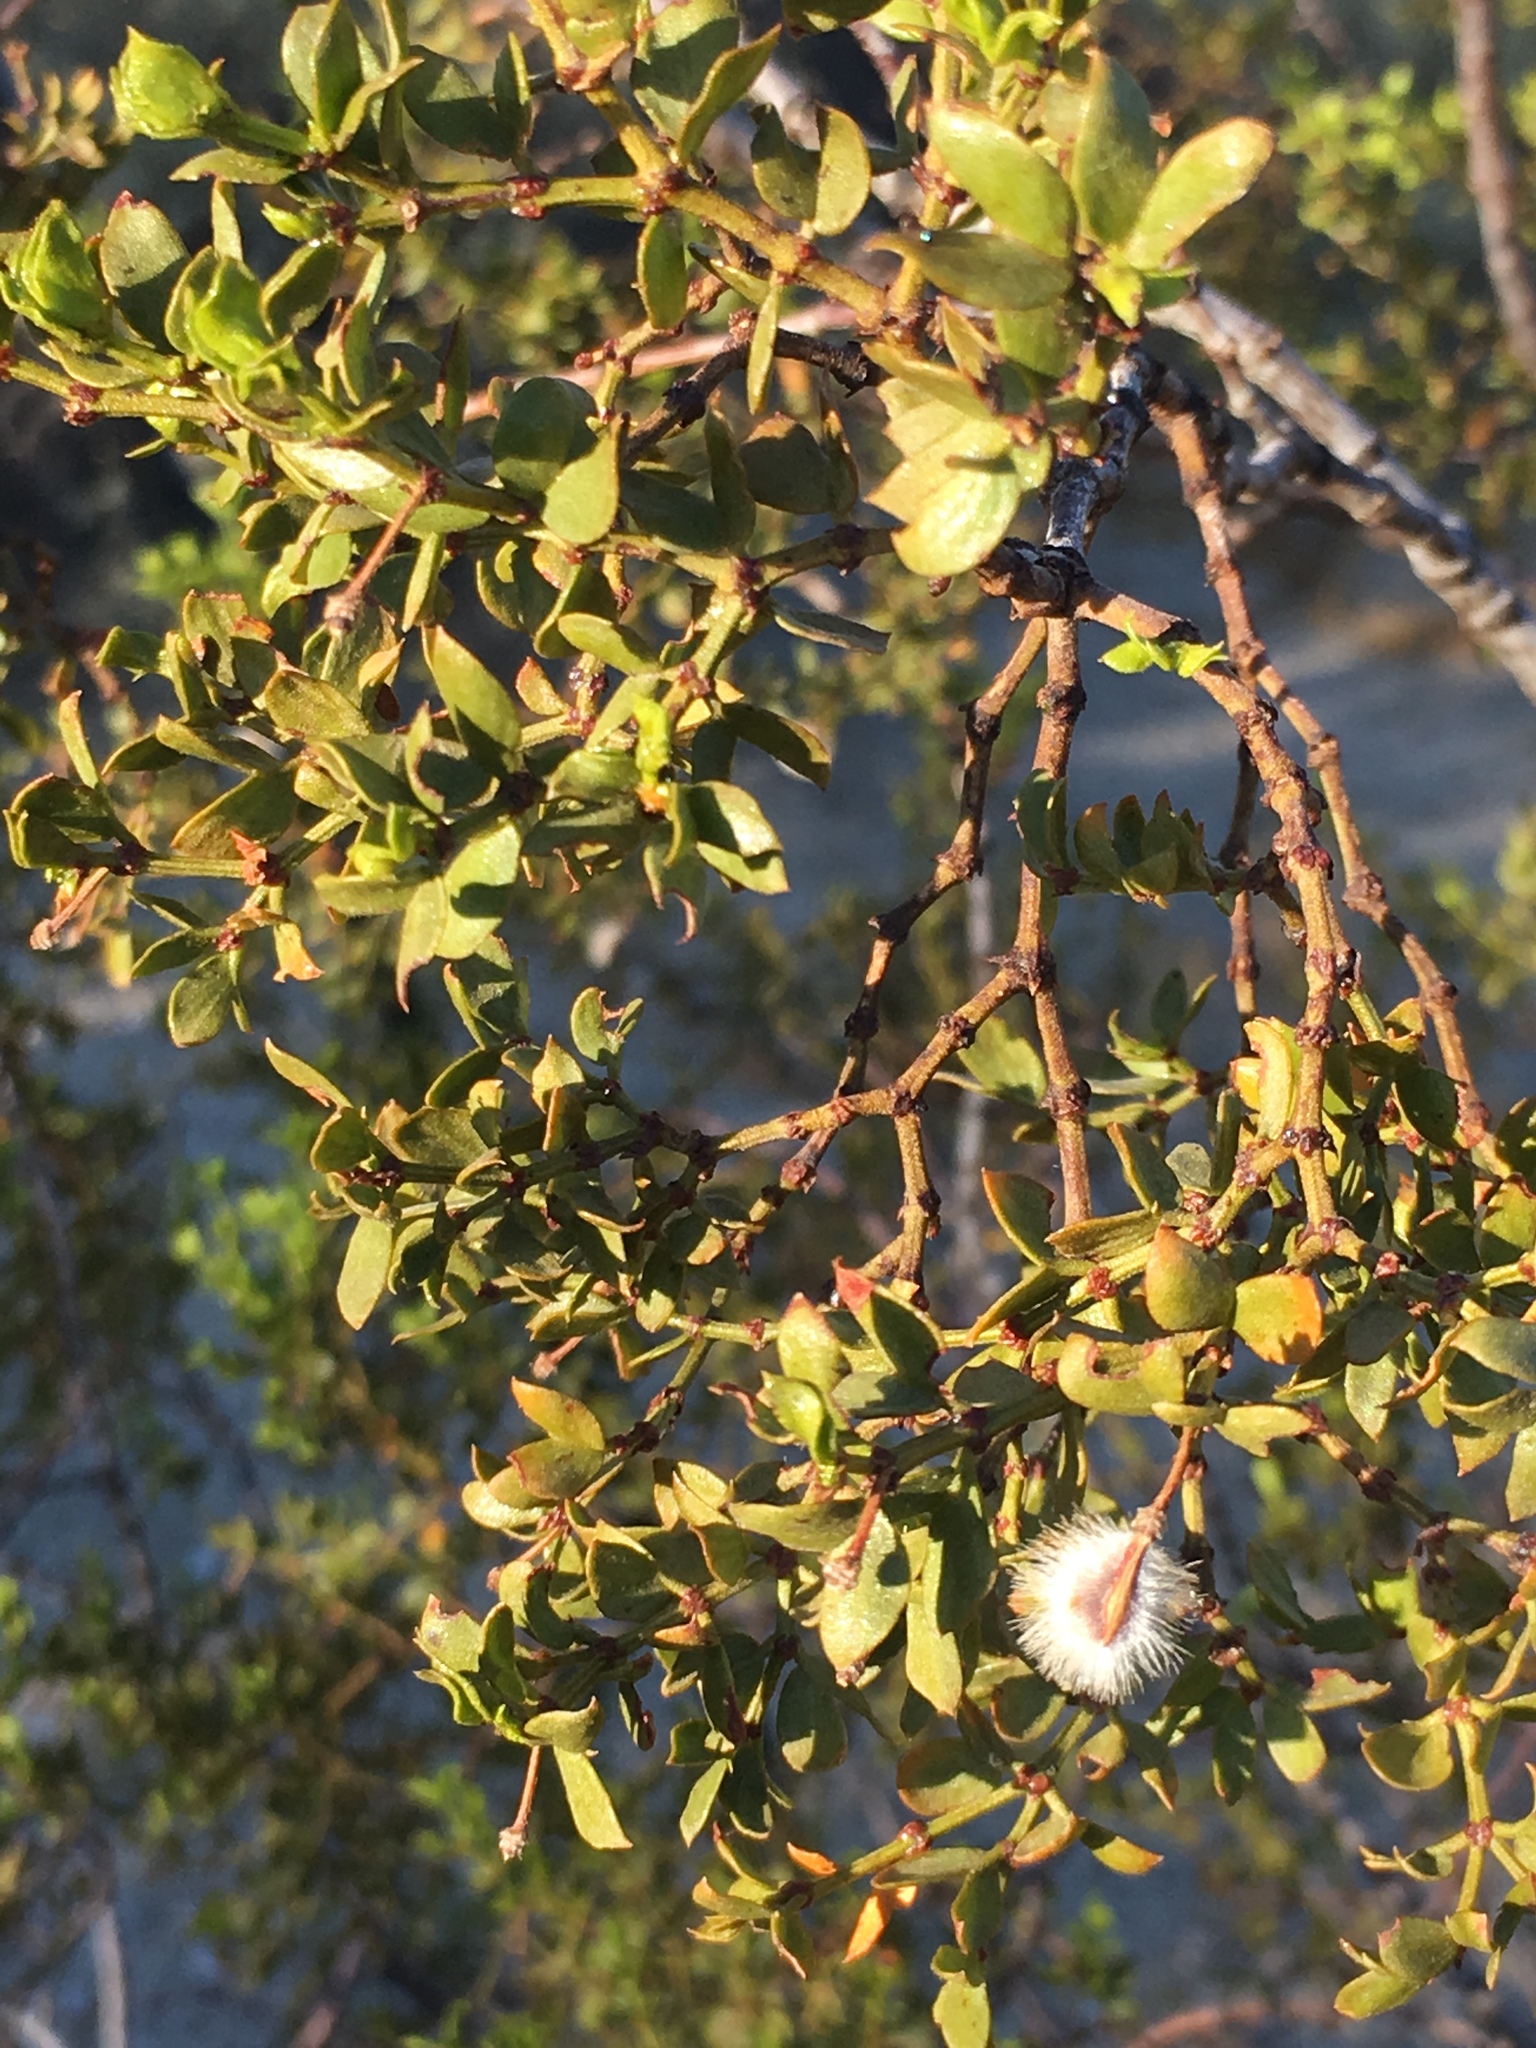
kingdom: Plantae
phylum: Tracheophyta
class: Magnoliopsida
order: Zygophyllales
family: Zygophyllaceae
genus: Larrea
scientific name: Larrea tridentata
